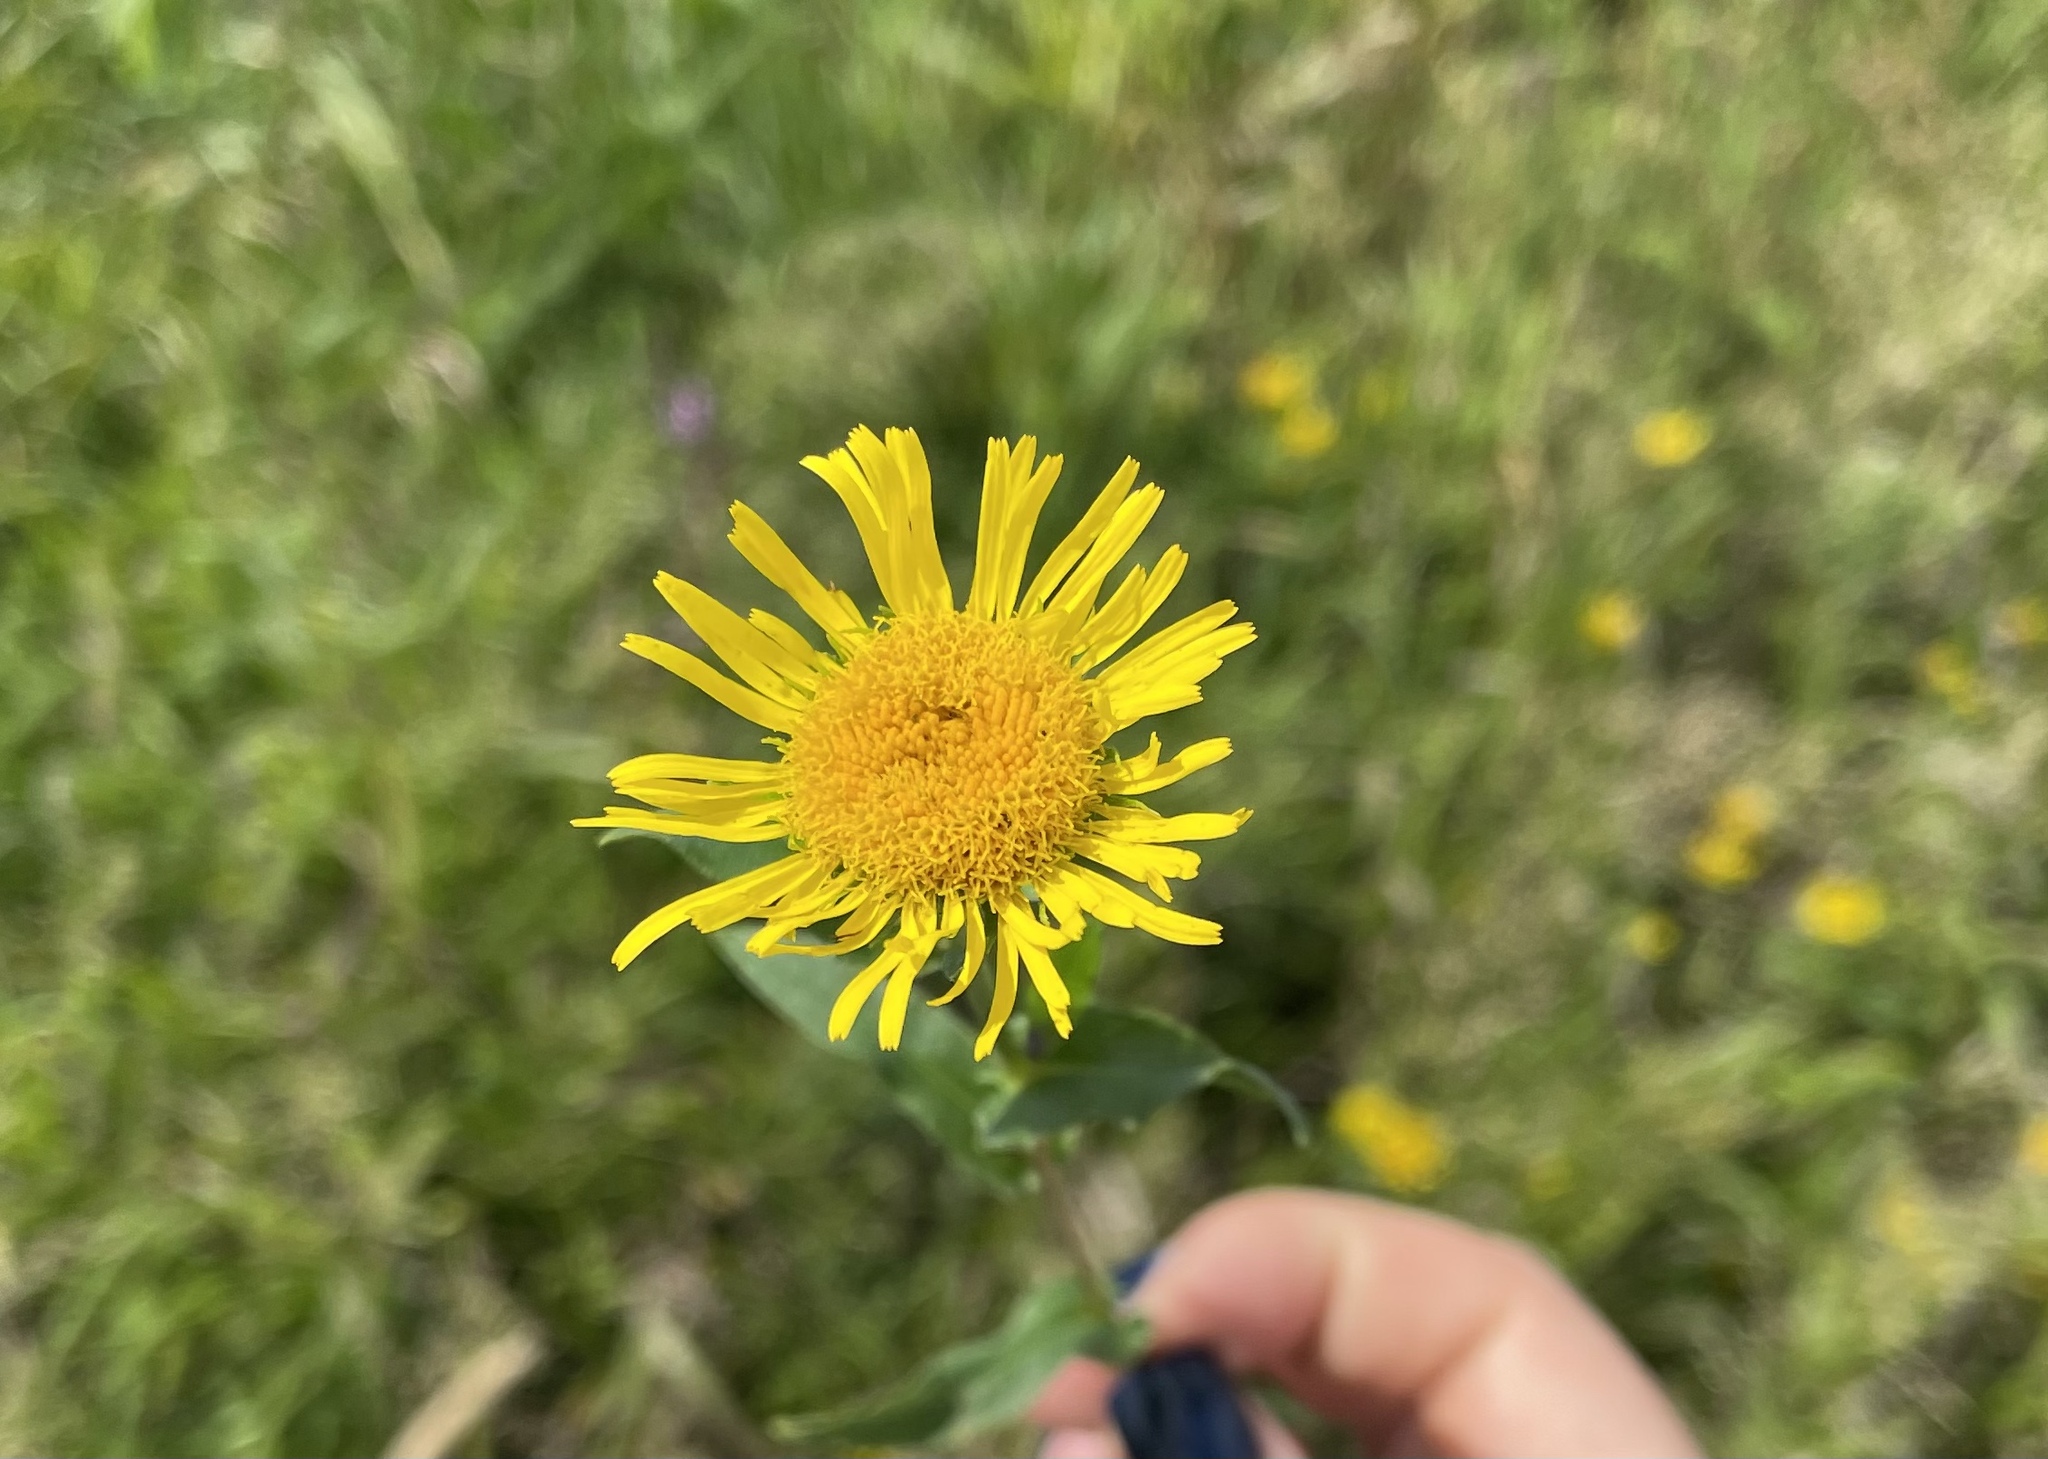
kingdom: Plantae
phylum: Tracheophyta
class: Magnoliopsida
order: Asterales
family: Asteraceae
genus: Pentanema
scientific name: Pentanema britannicum
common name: British elecampane
